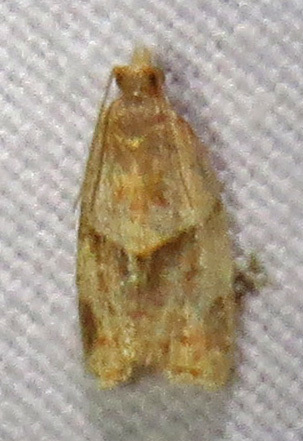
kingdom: Animalia
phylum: Arthropoda
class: Insecta
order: Lepidoptera
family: Tortricidae
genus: Clepsis
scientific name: Clepsis peritana
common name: Garden tortrix
